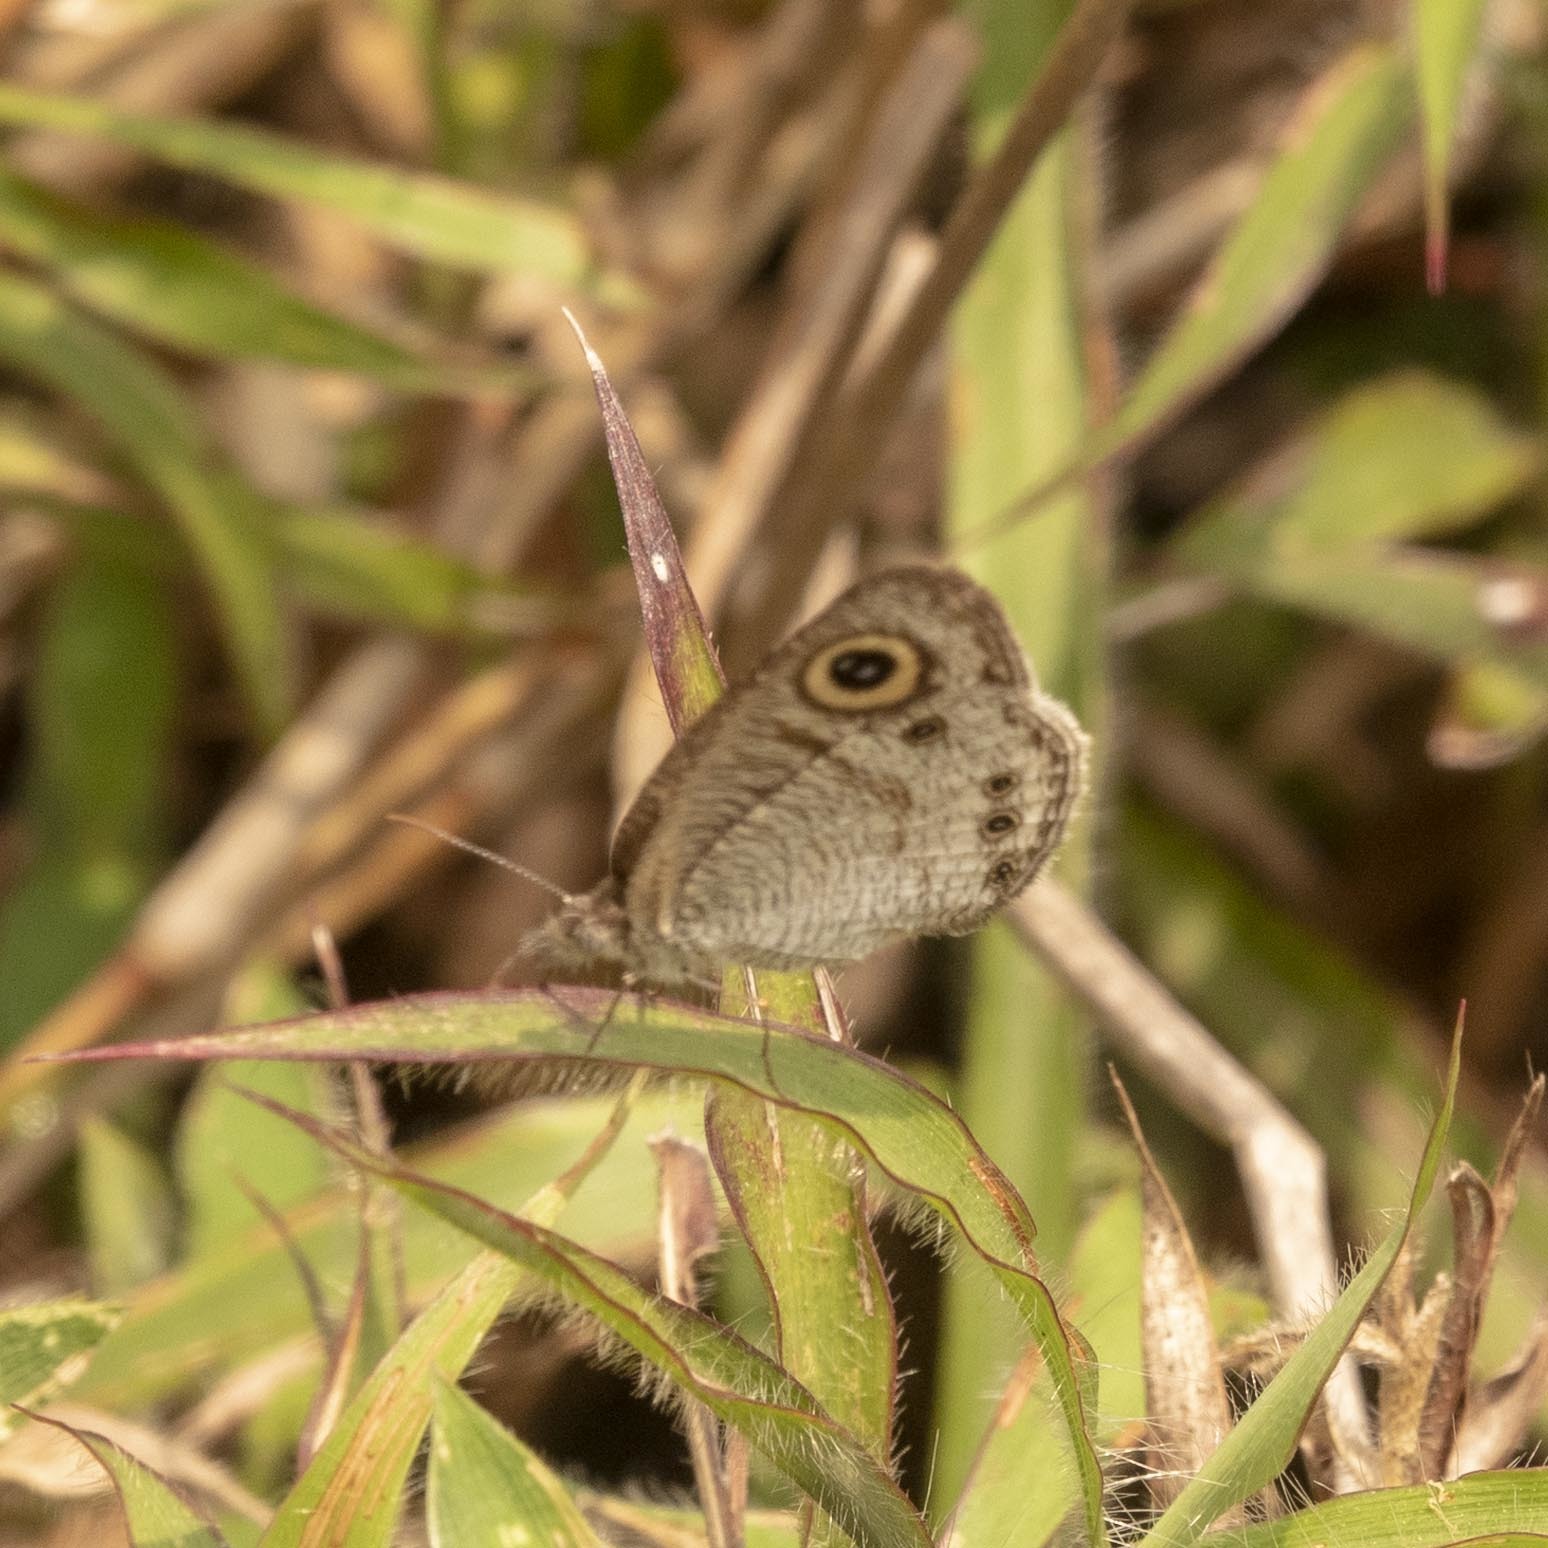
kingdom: Animalia
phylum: Arthropoda
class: Insecta
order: Lepidoptera
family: Nymphalidae
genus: Ypthima
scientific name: Ypthima huebneri
